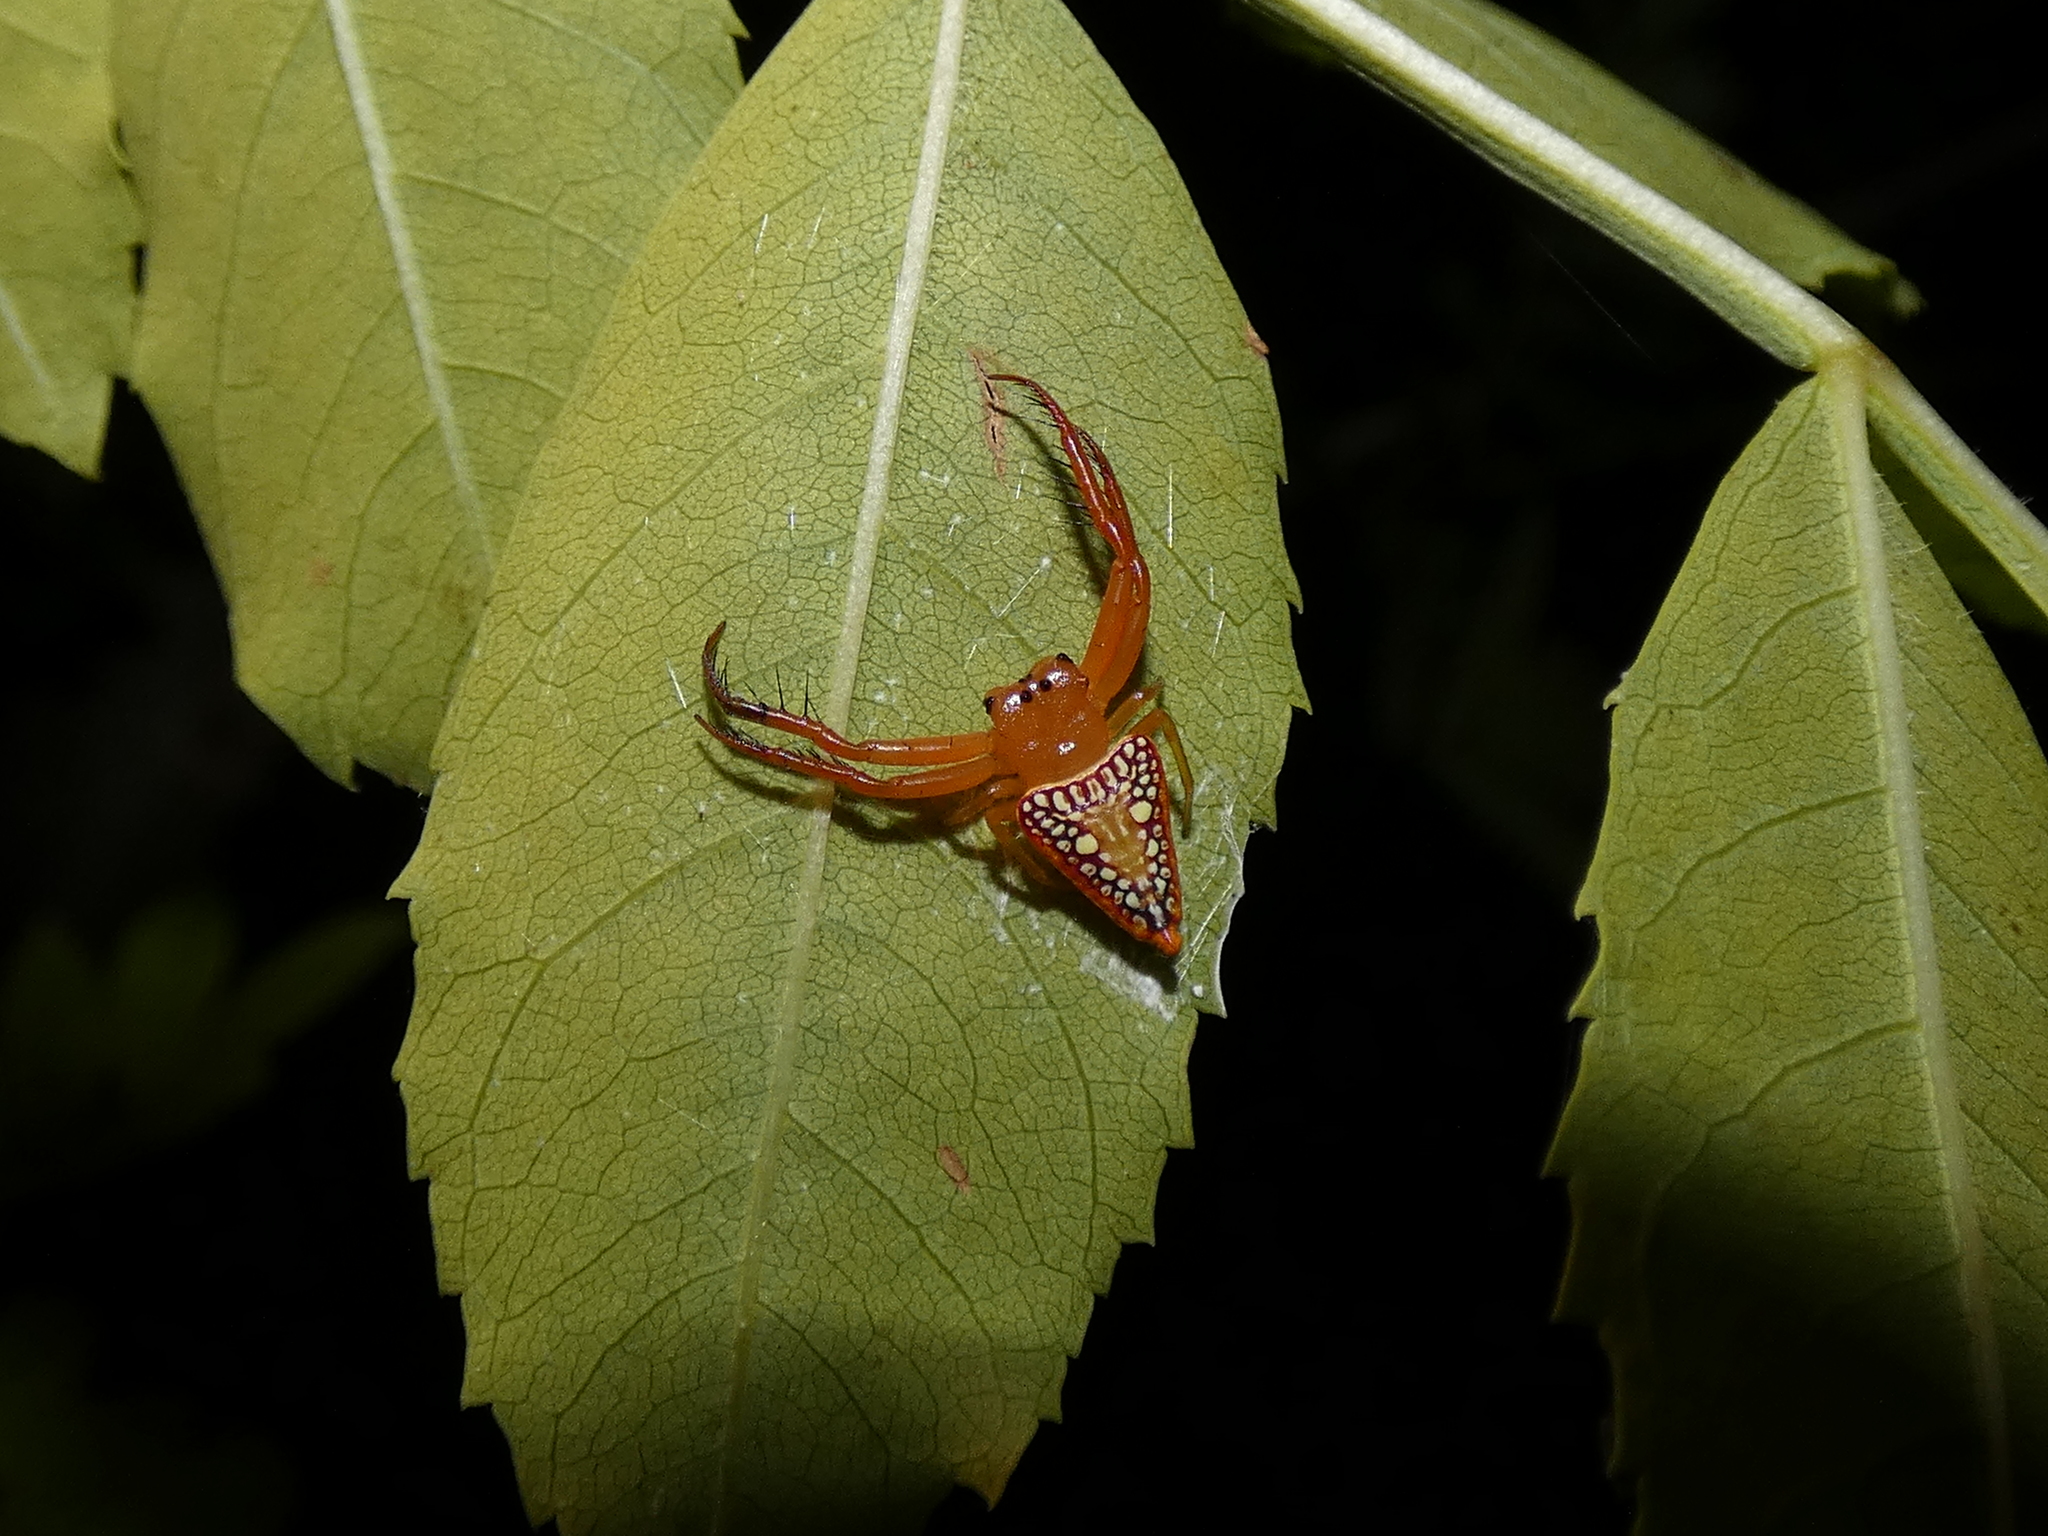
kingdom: Animalia
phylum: Arthropoda
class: Arachnida
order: Araneae
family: Arkyidae
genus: Arkys
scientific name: Arkys walckenaeri
